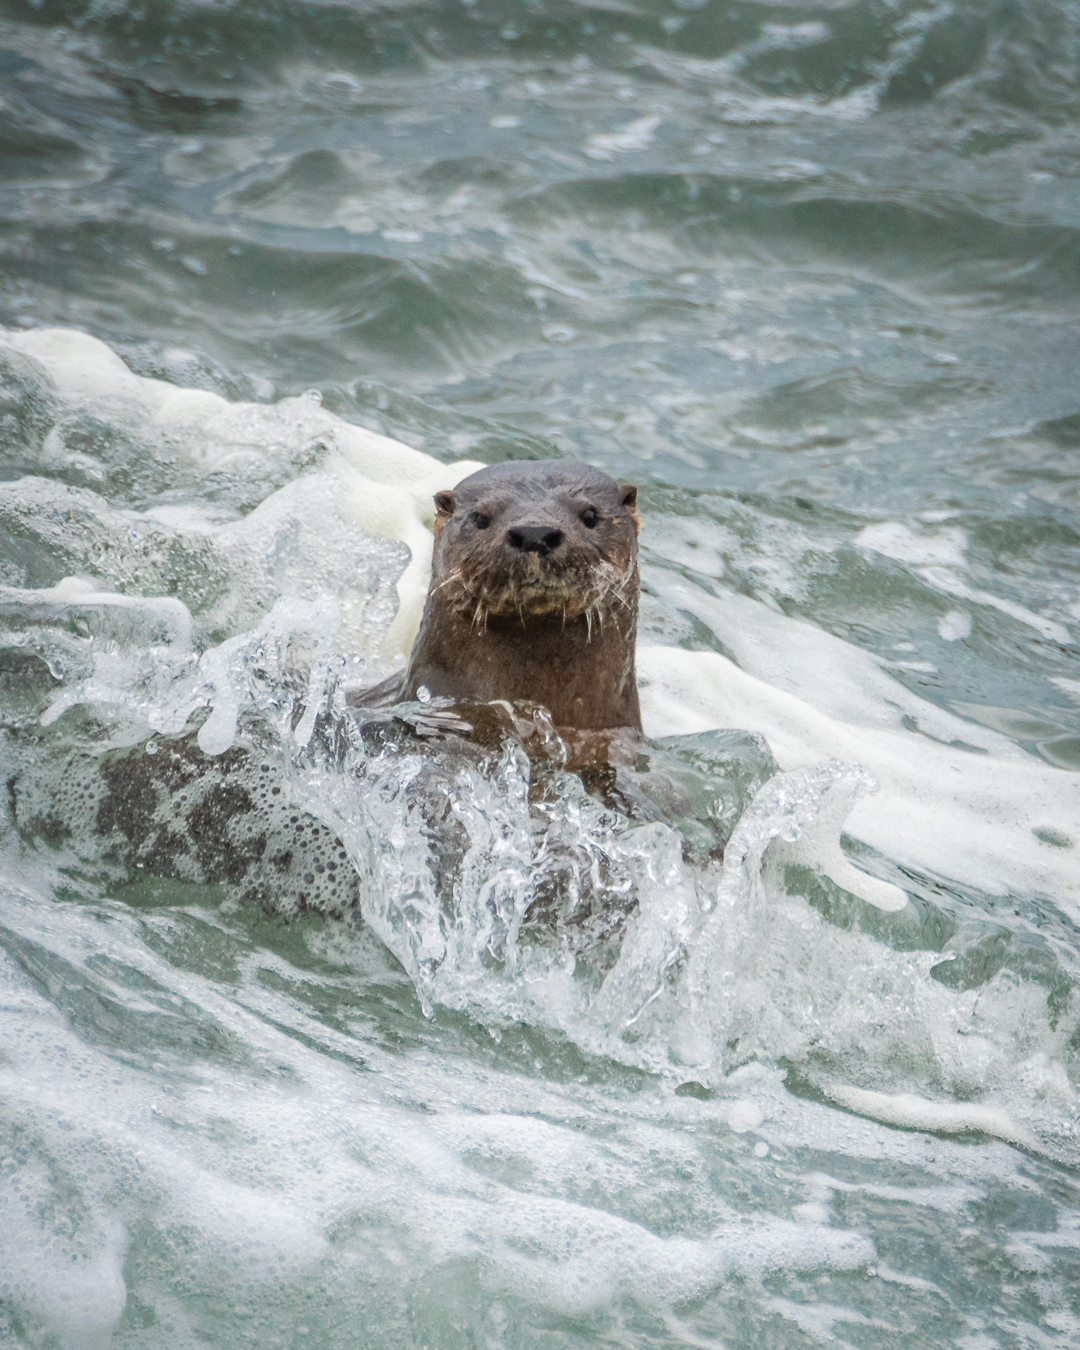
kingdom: Animalia
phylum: Chordata
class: Mammalia
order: Carnivora
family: Mustelidae
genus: Lontra
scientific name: Lontra felina
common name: Marine otter
